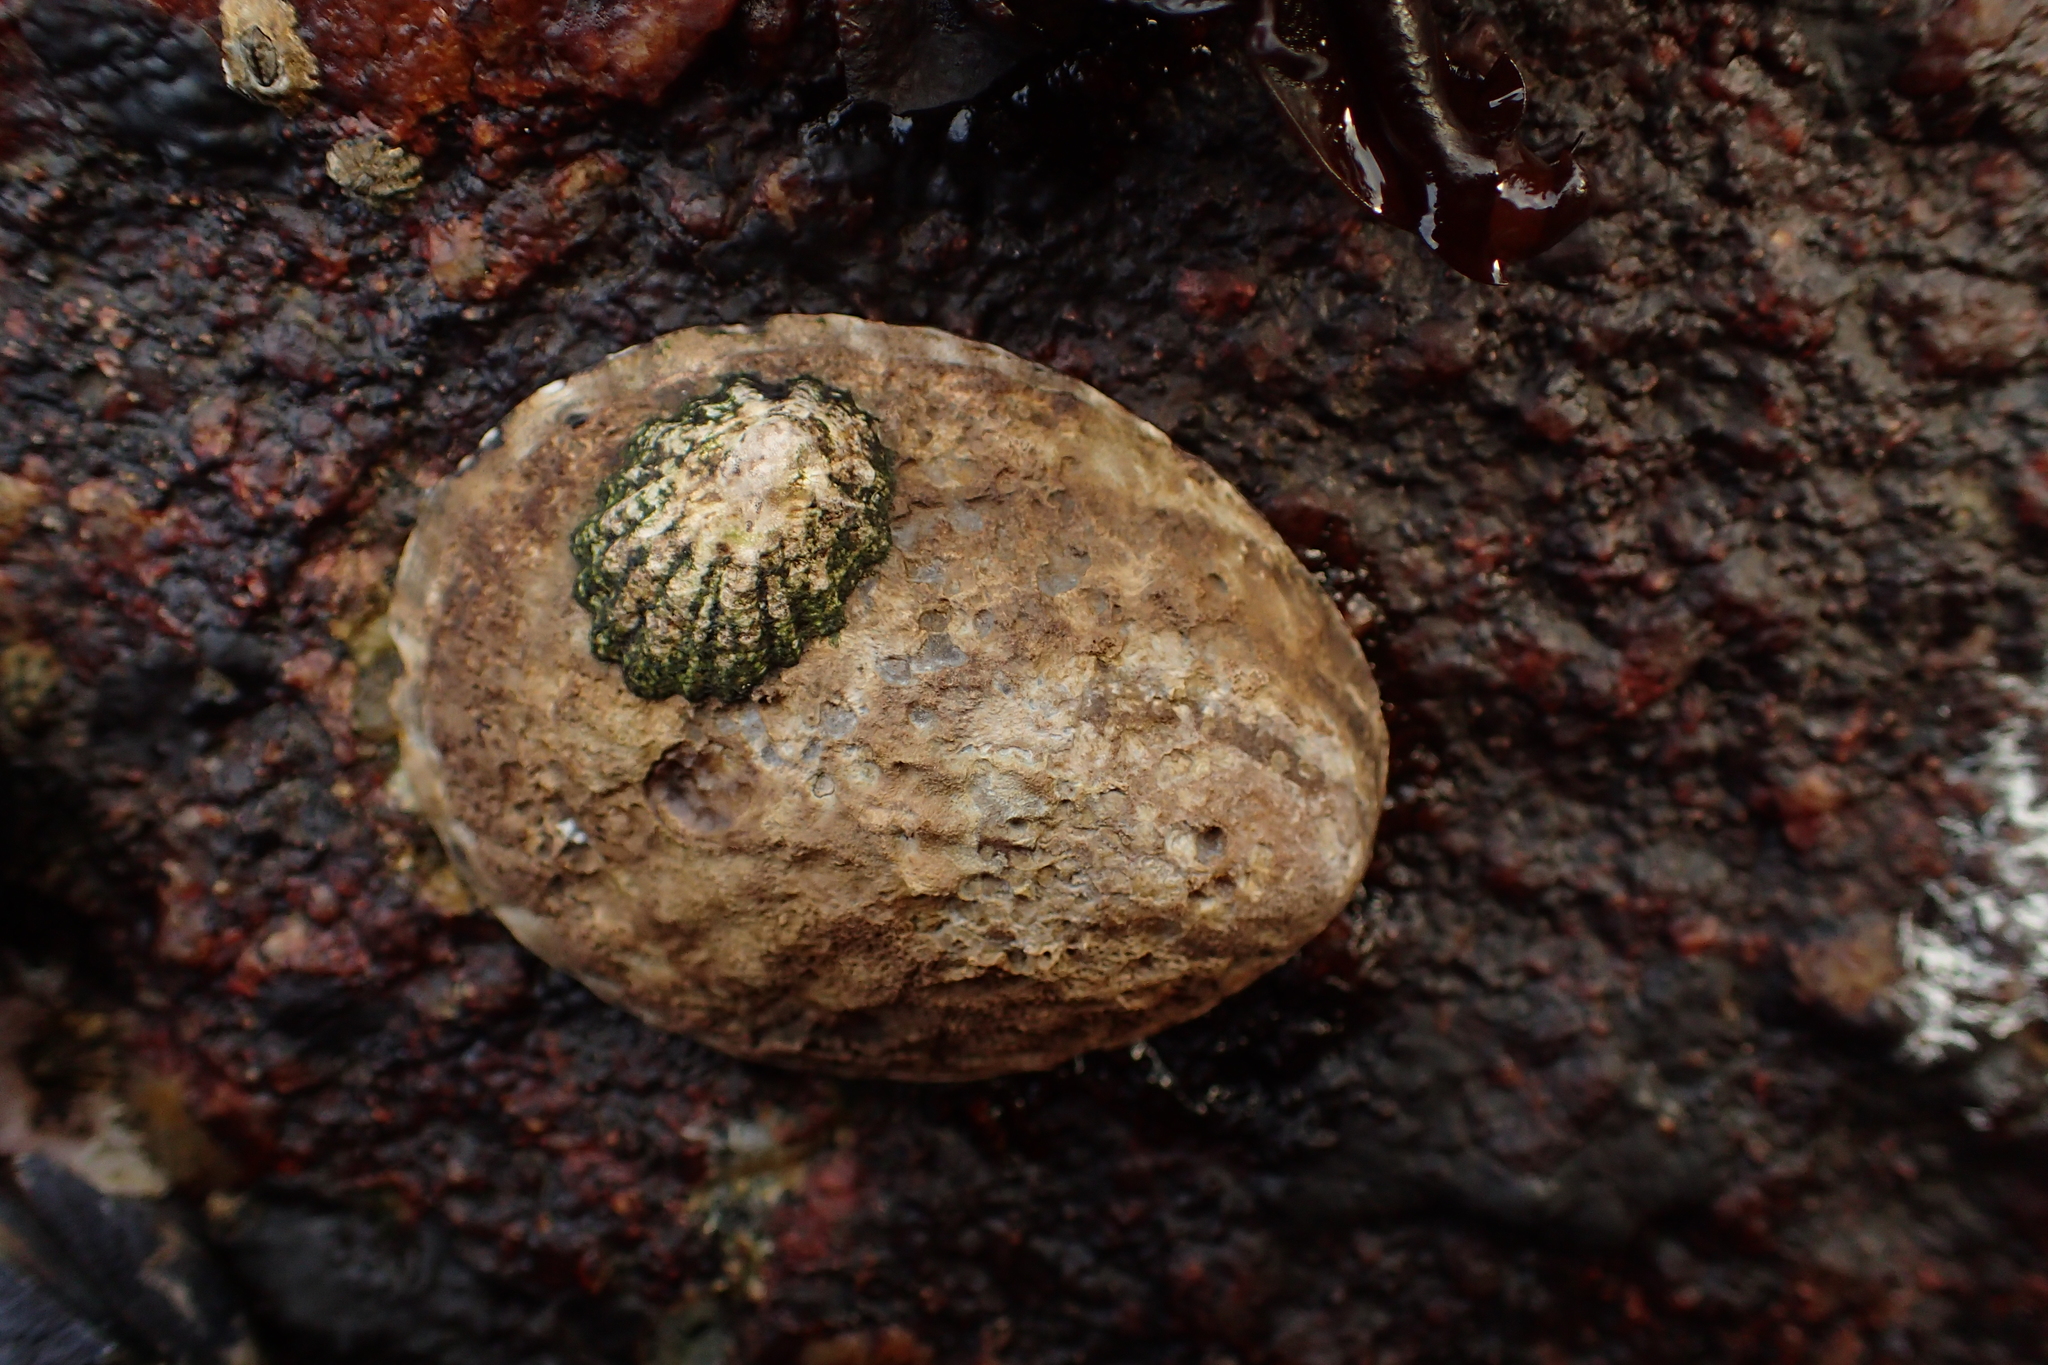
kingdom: Animalia
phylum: Mollusca
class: Gastropoda
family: Lottiidae
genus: Lottia
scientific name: Lottia gigantea
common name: Owl limpet
